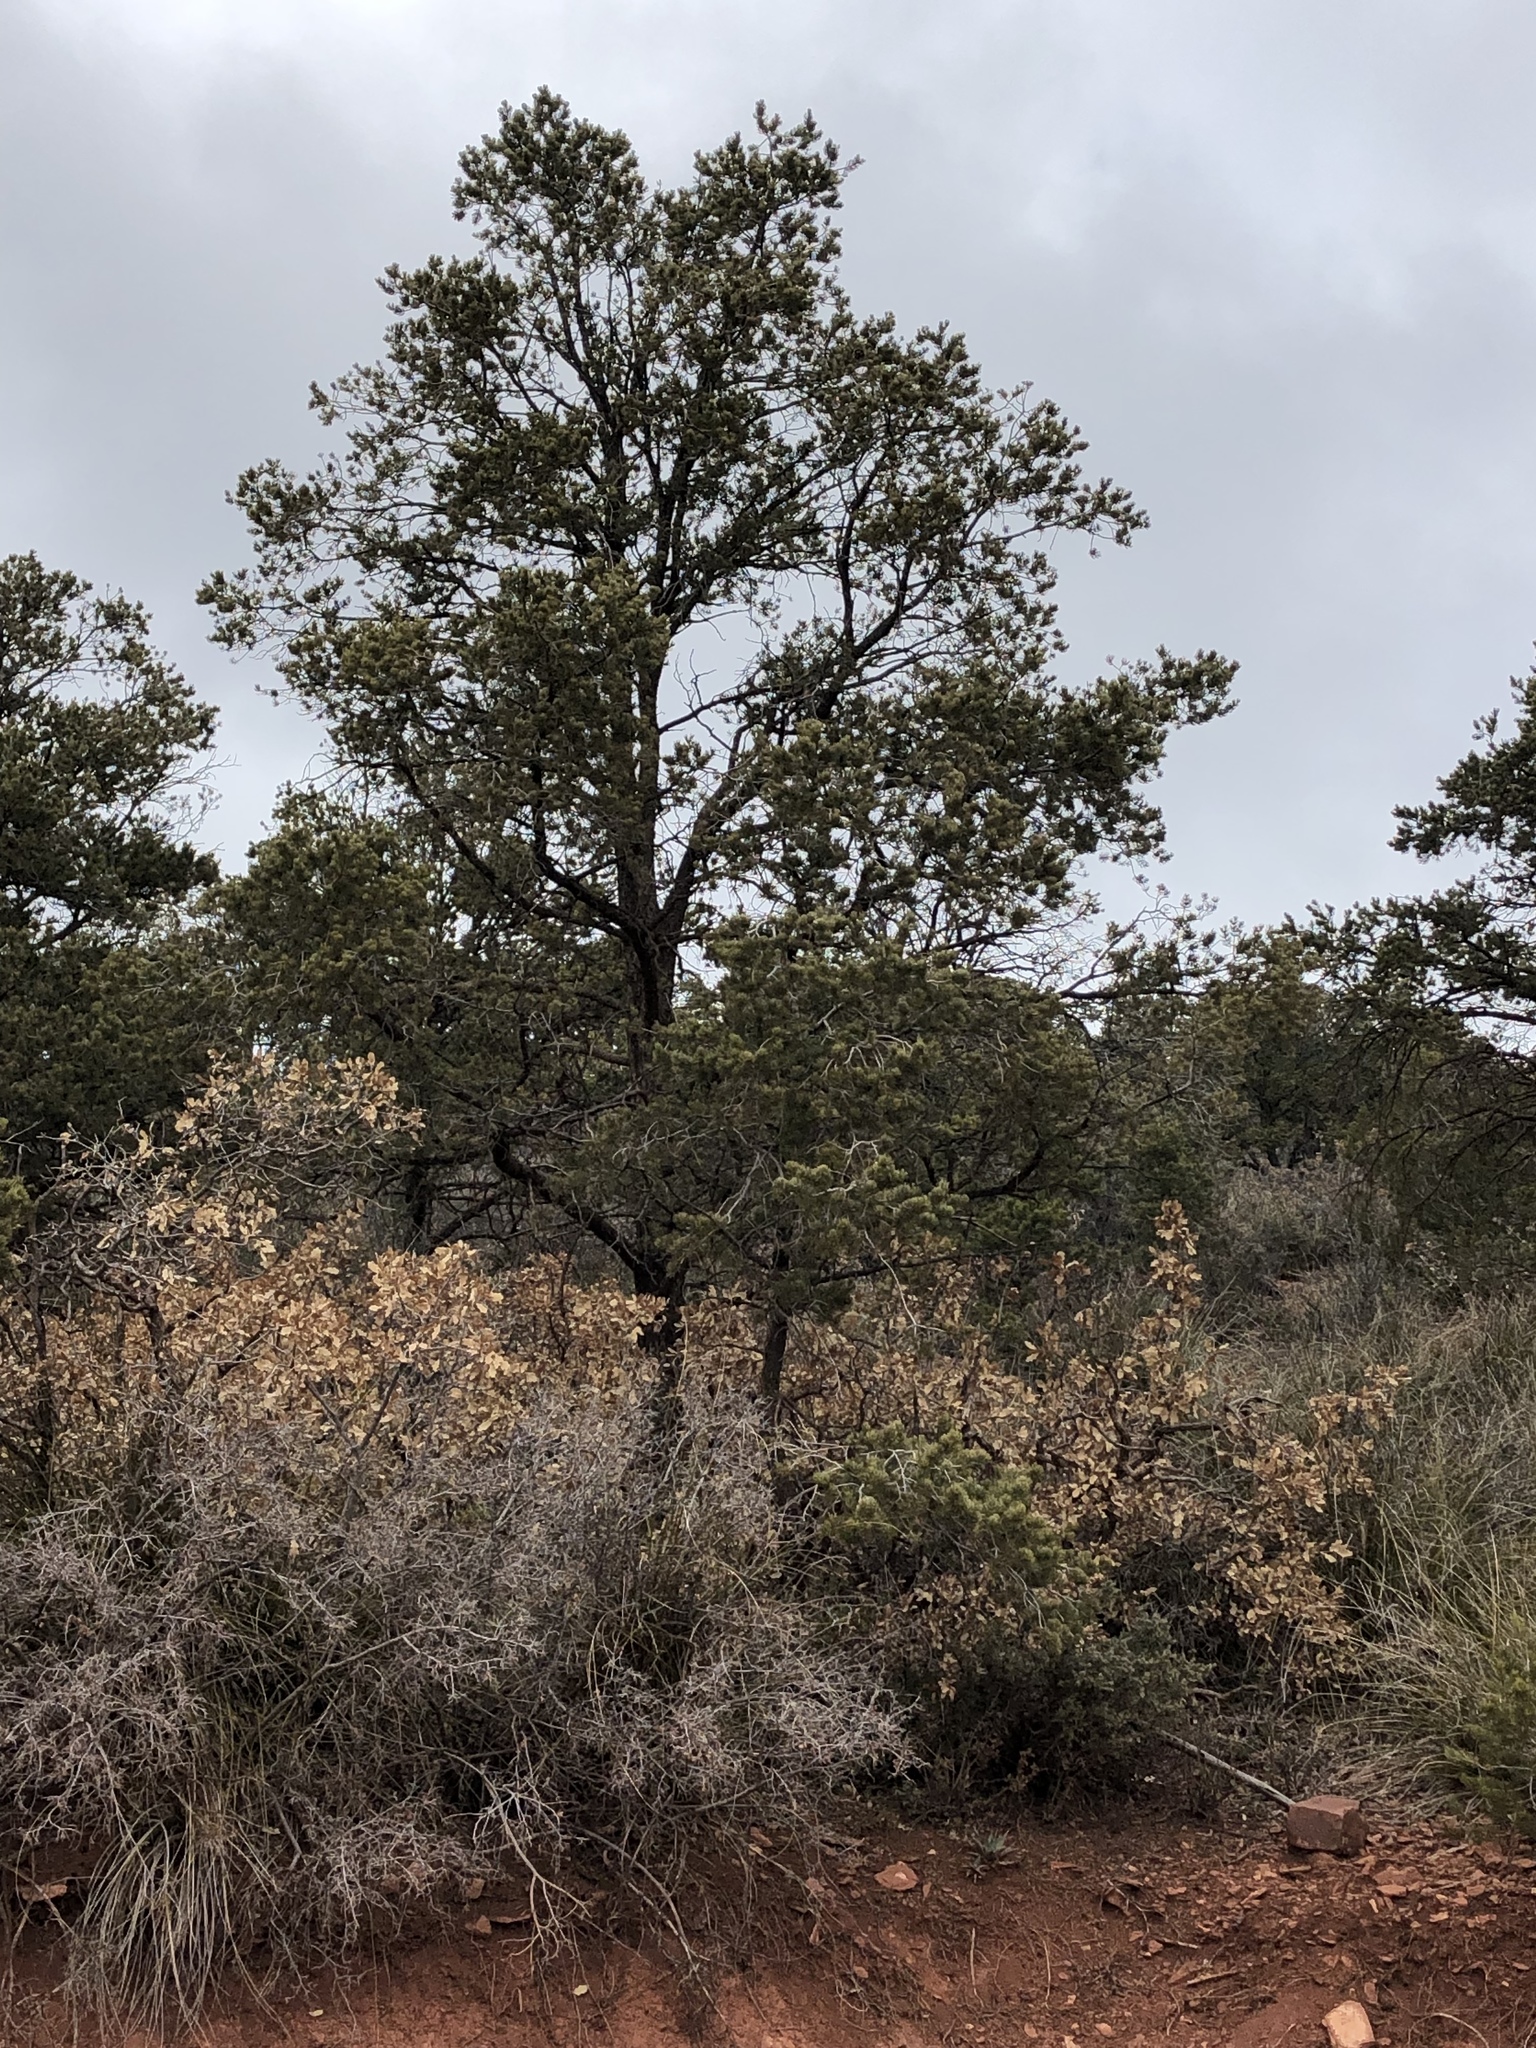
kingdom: Plantae
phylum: Tracheophyta
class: Pinopsida
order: Pinales
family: Pinaceae
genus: Pinus
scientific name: Pinus edulis
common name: Colorado pinyon
